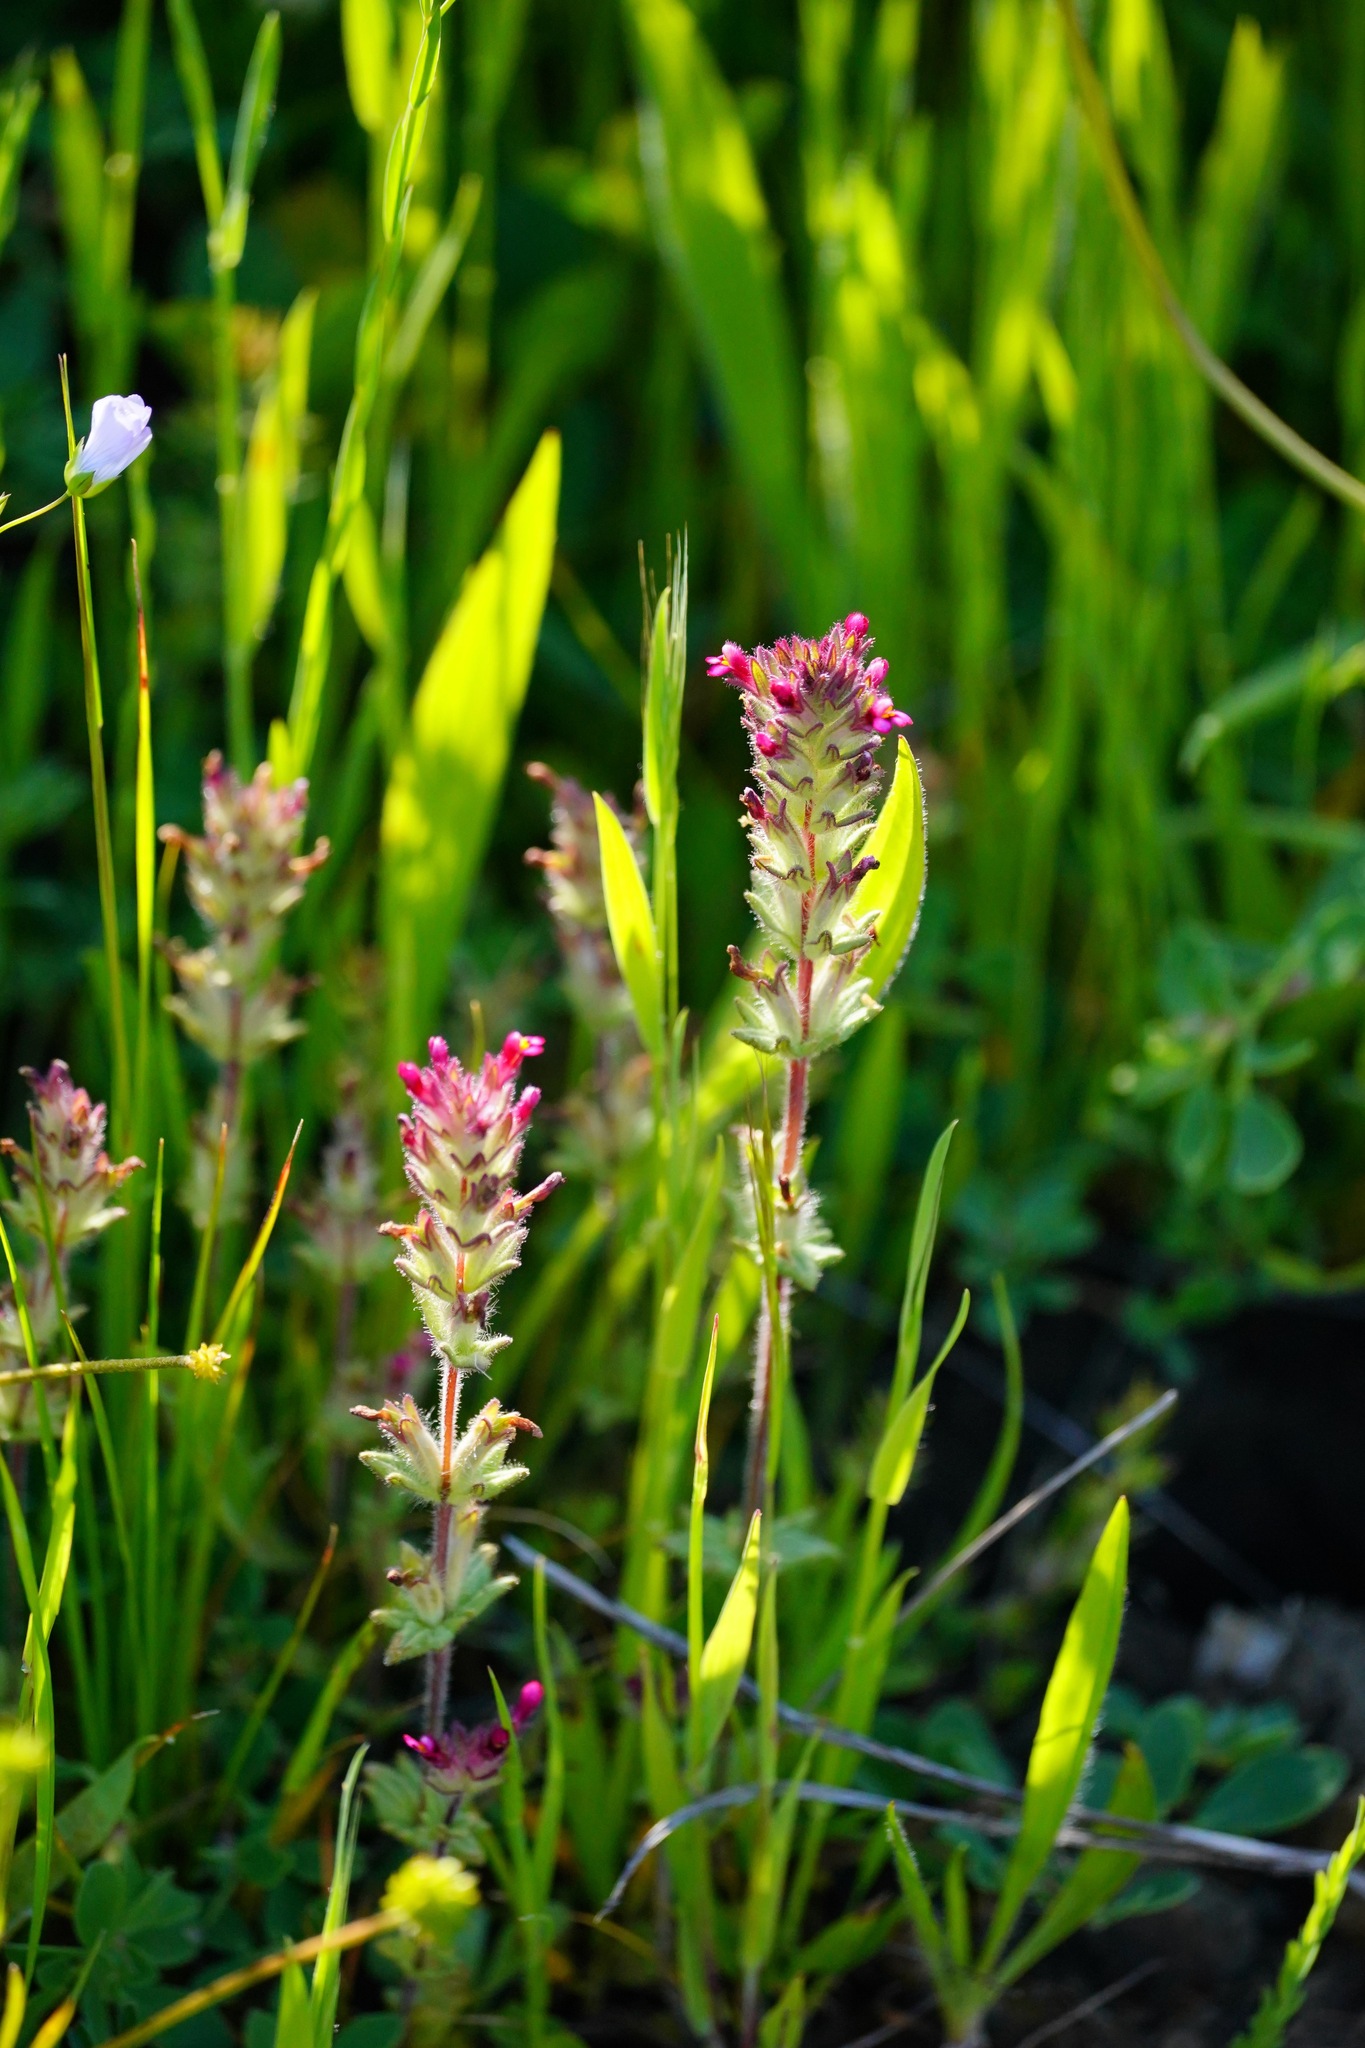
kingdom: Plantae
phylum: Tracheophyta
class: Magnoliopsida
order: Lamiales
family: Orobanchaceae
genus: Parentucellia
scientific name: Parentucellia latifolia
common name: Broadleaf glandweed
